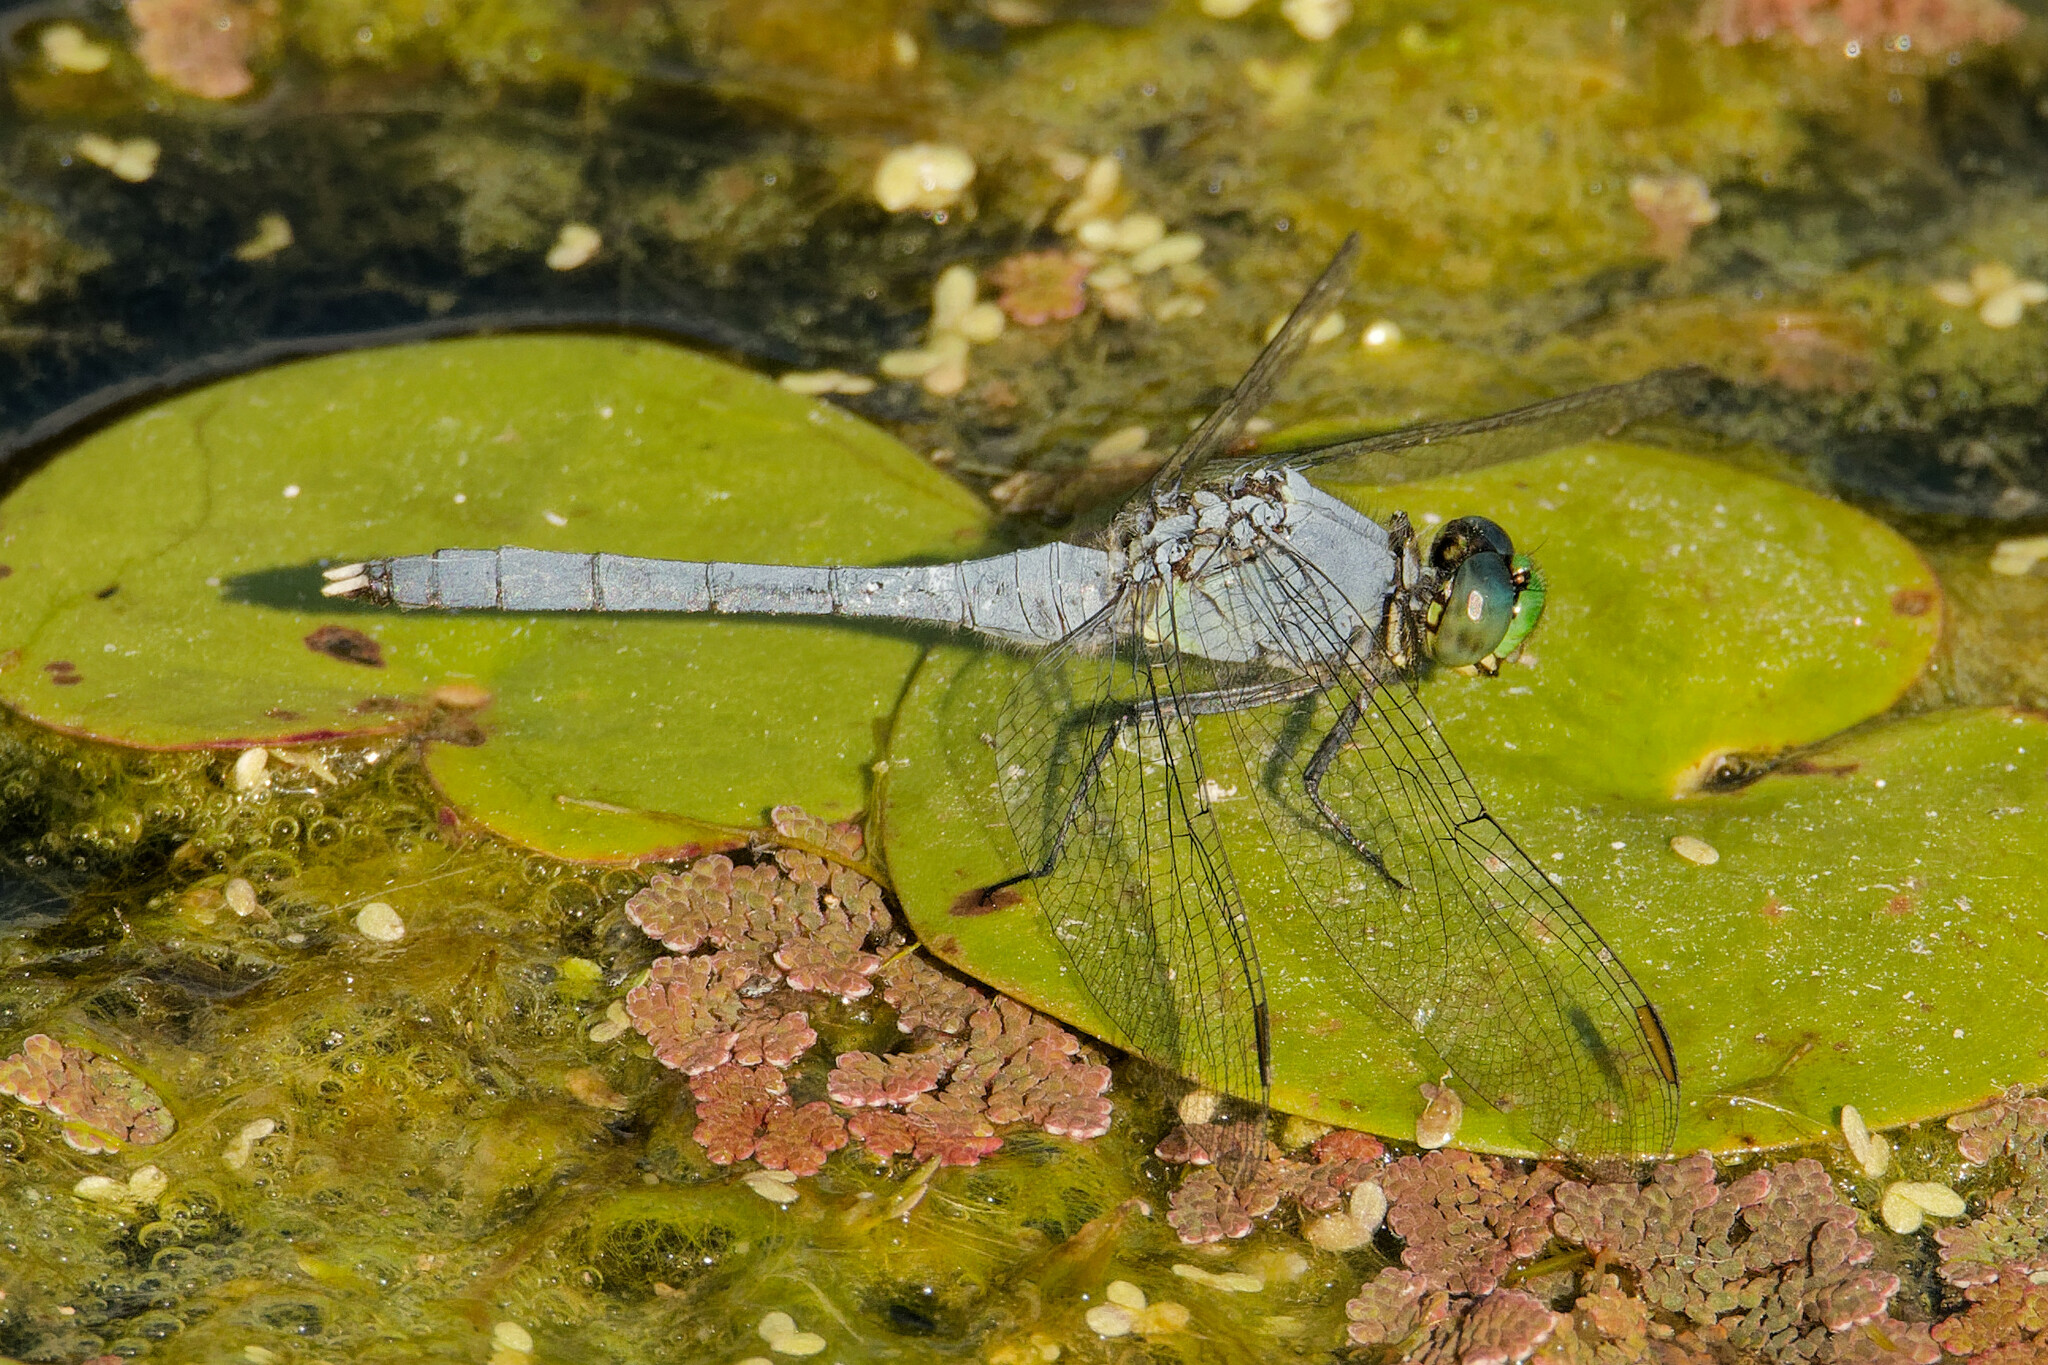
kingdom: Animalia
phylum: Arthropoda
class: Insecta
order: Odonata
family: Libellulidae
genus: Erythemis
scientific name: Erythemis simplicicollis
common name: Eastern pondhawk
